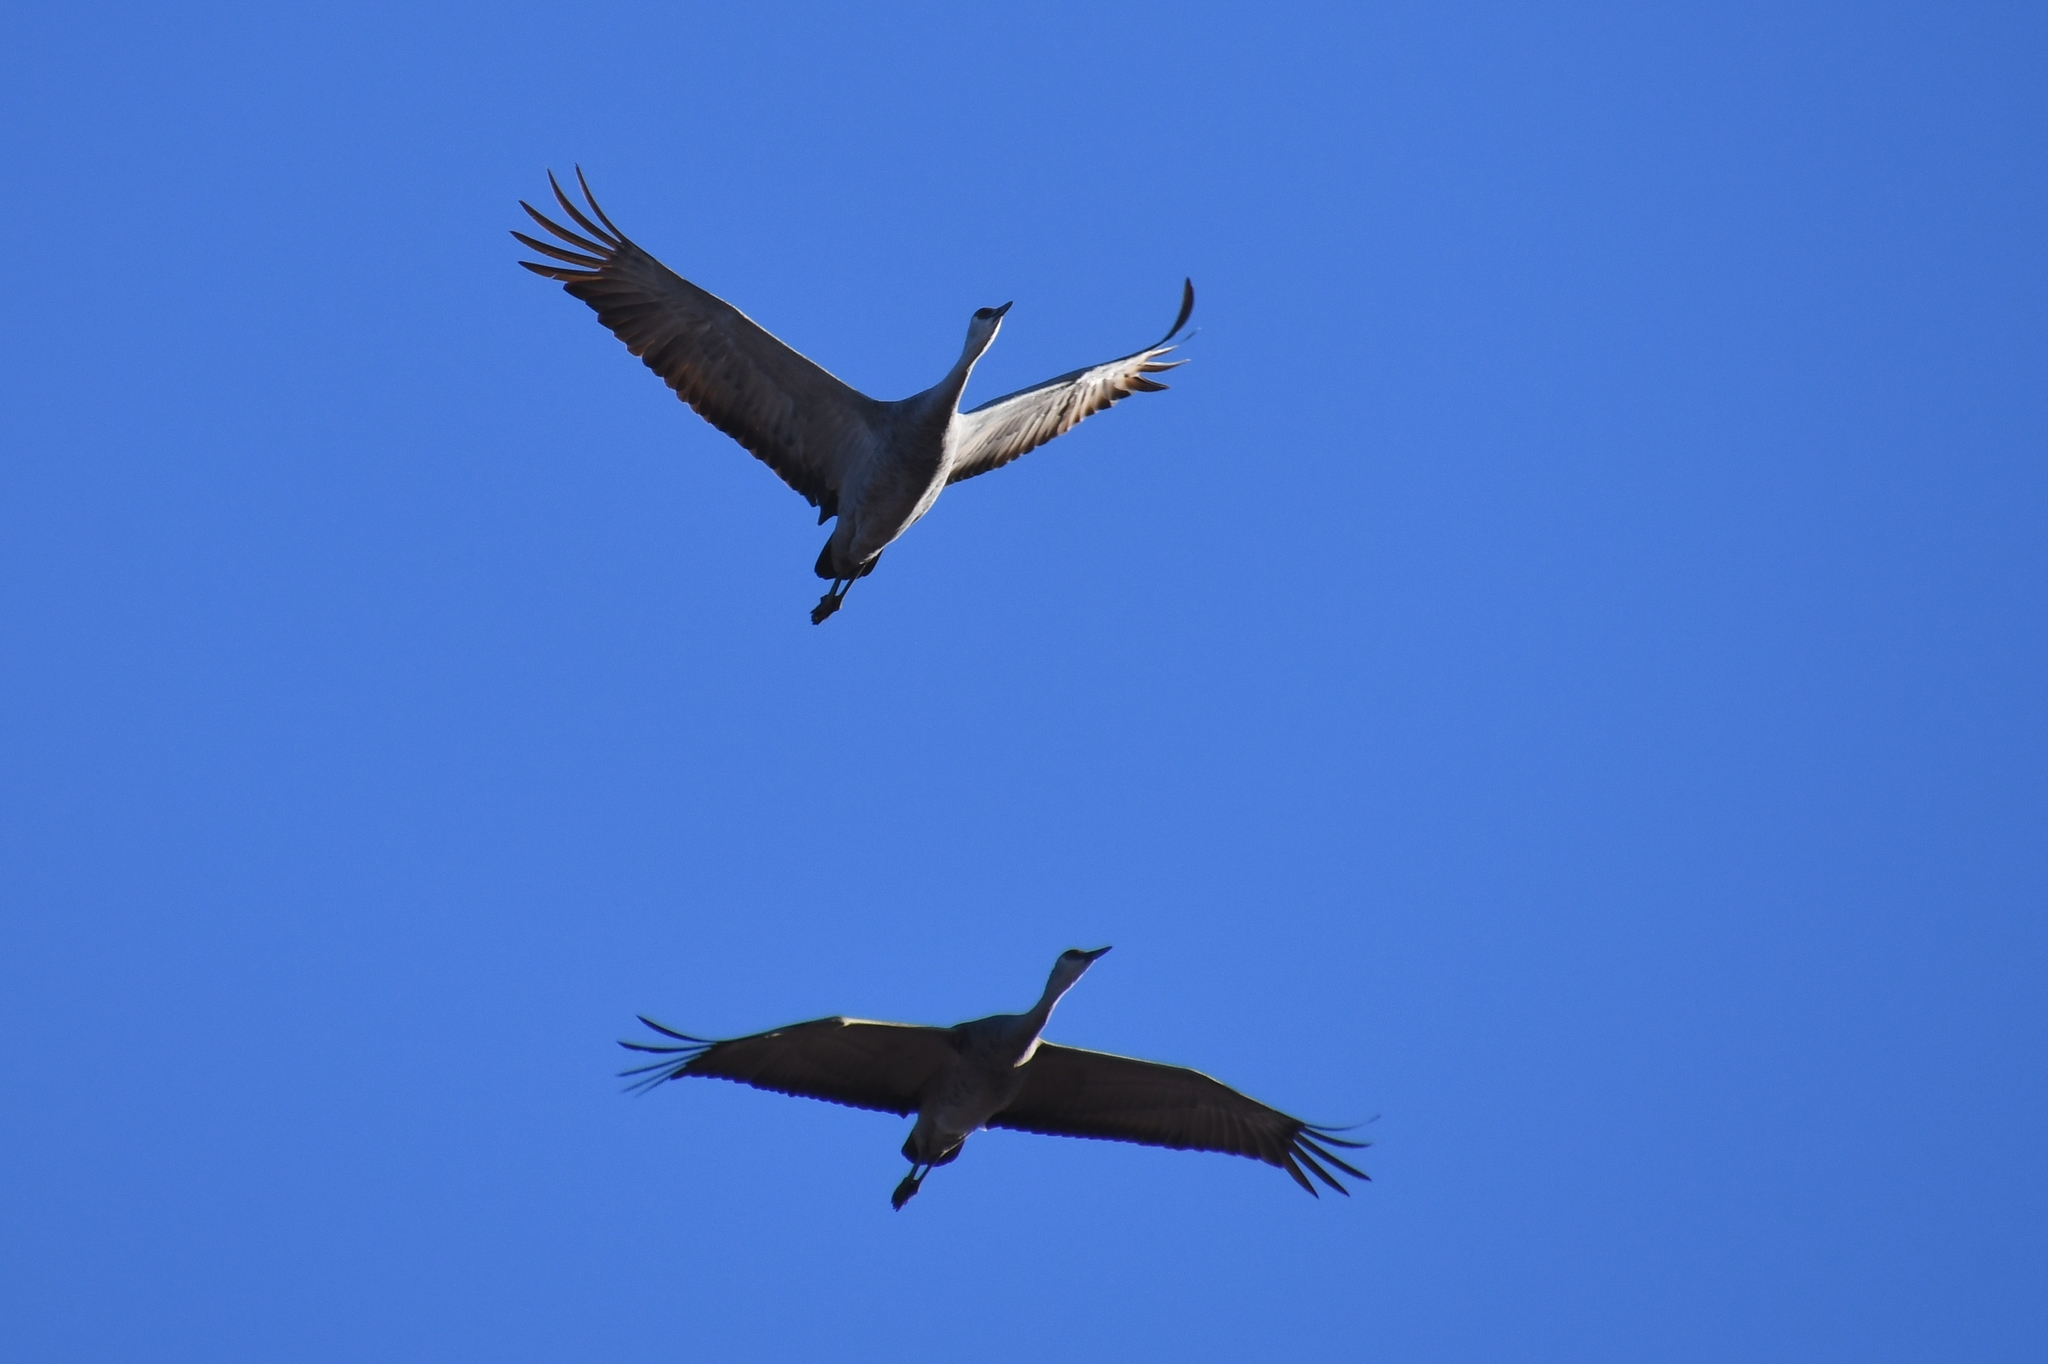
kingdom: Animalia
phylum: Chordata
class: Aves
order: Gruiformes
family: Gruidae
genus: Grus
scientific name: Grus canadensis
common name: Sandhill crane
